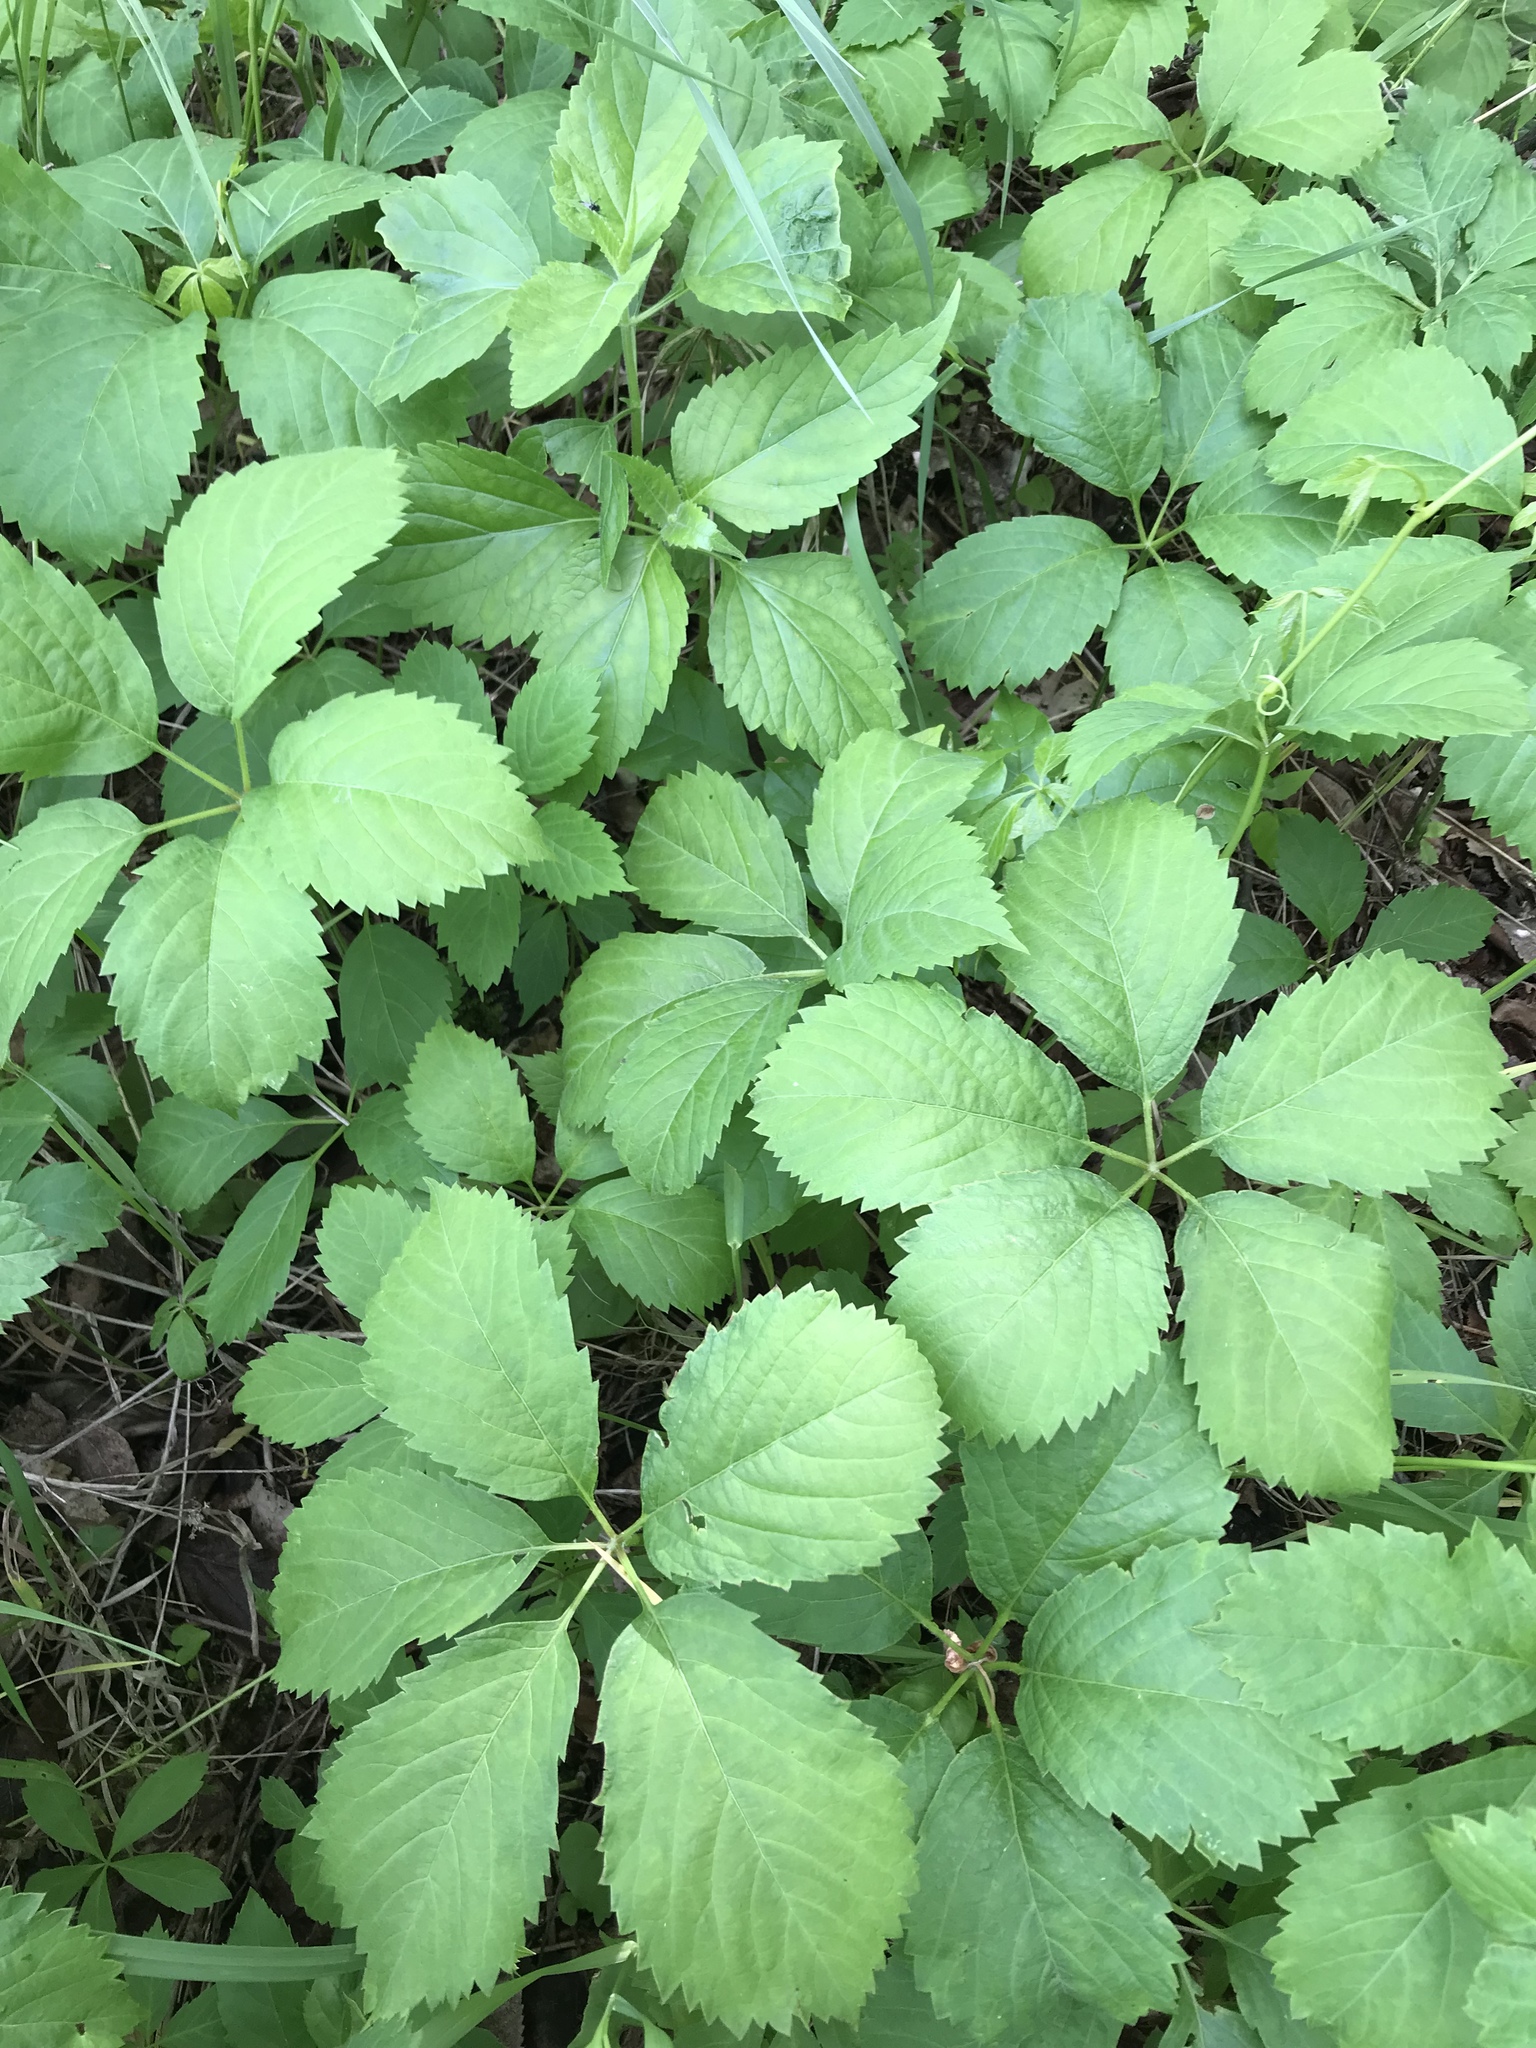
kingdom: Plantae
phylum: Tracheophyta
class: Magnoliopsida
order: Vitales
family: Vitaceae
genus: Parthenocissus
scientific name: Parthenocissus inserta
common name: False virginia-creeper
